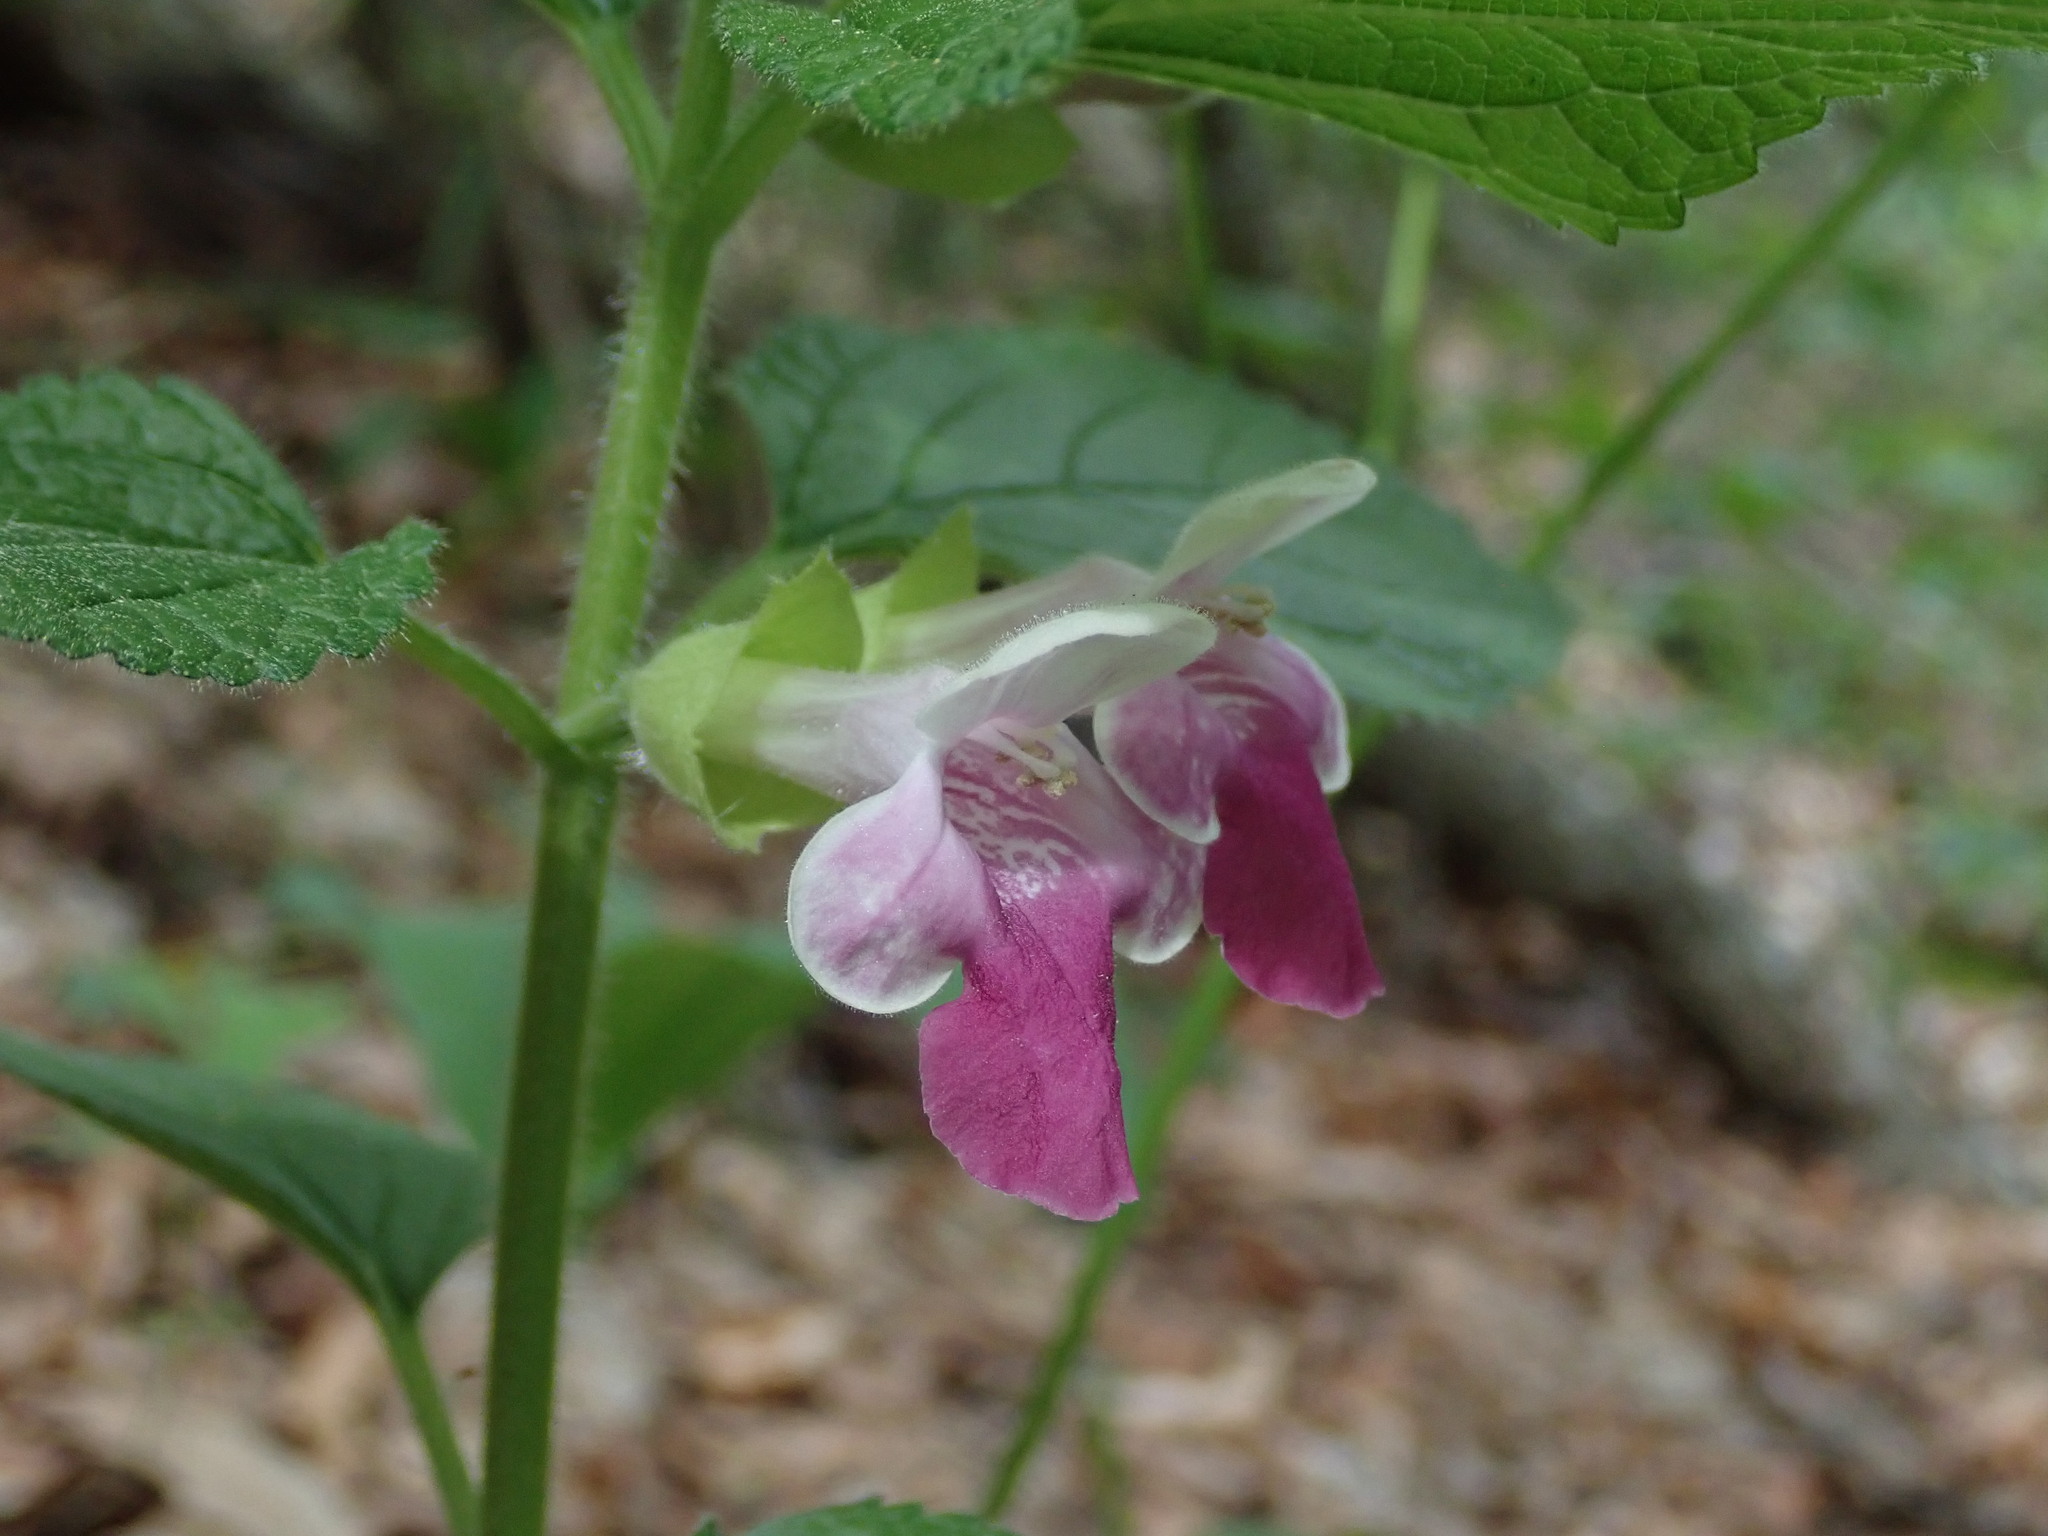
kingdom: Plantae
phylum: Tracheophyta
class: Magnoliopsida
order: Lamiales
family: Lamiaceae
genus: Melittis
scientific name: Melittis melissophyllum
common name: Bastard balm
